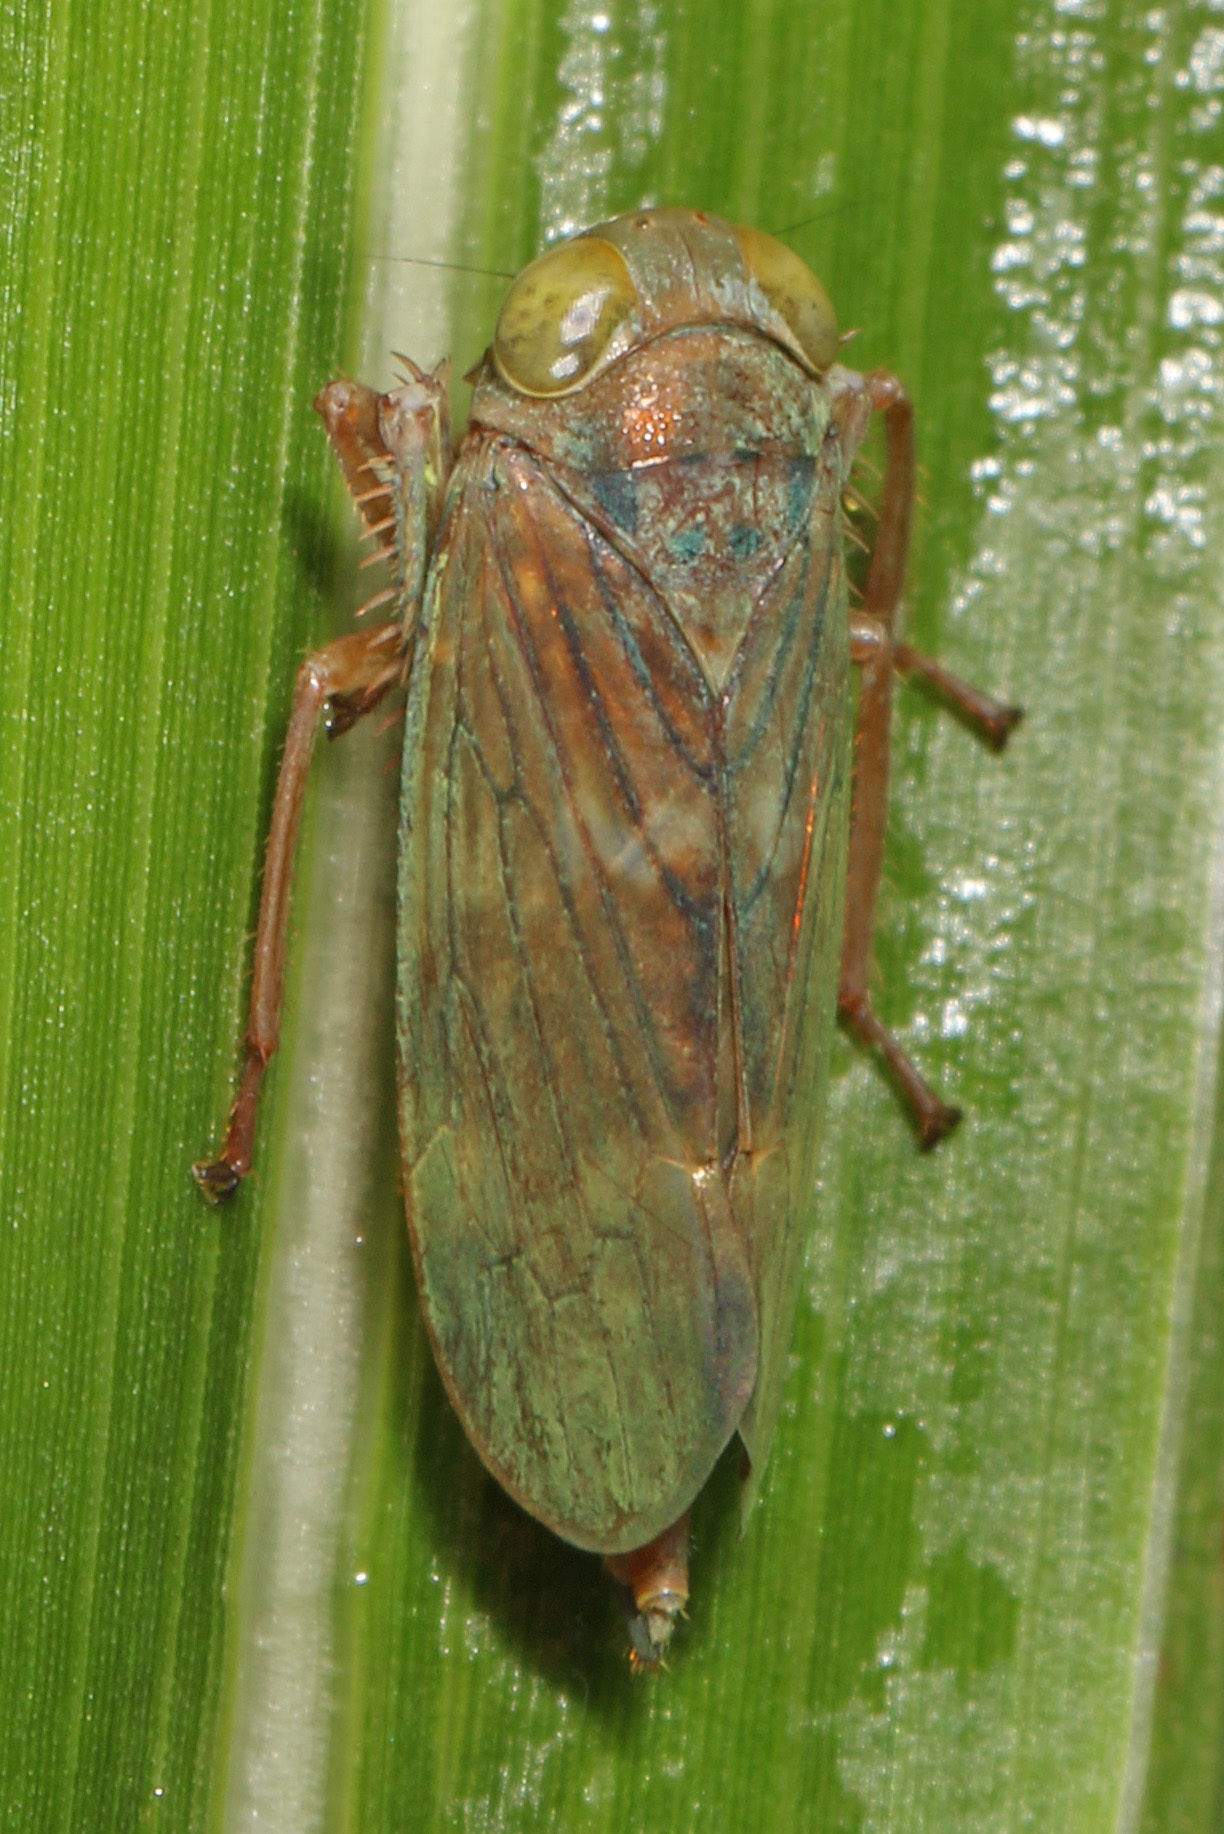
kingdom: Animalia
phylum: Arthropoda
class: Insecta
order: Hemiptera
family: Cicadellidae
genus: Jikradia
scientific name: Jikradia olitoria
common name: Coppery leafhopper
